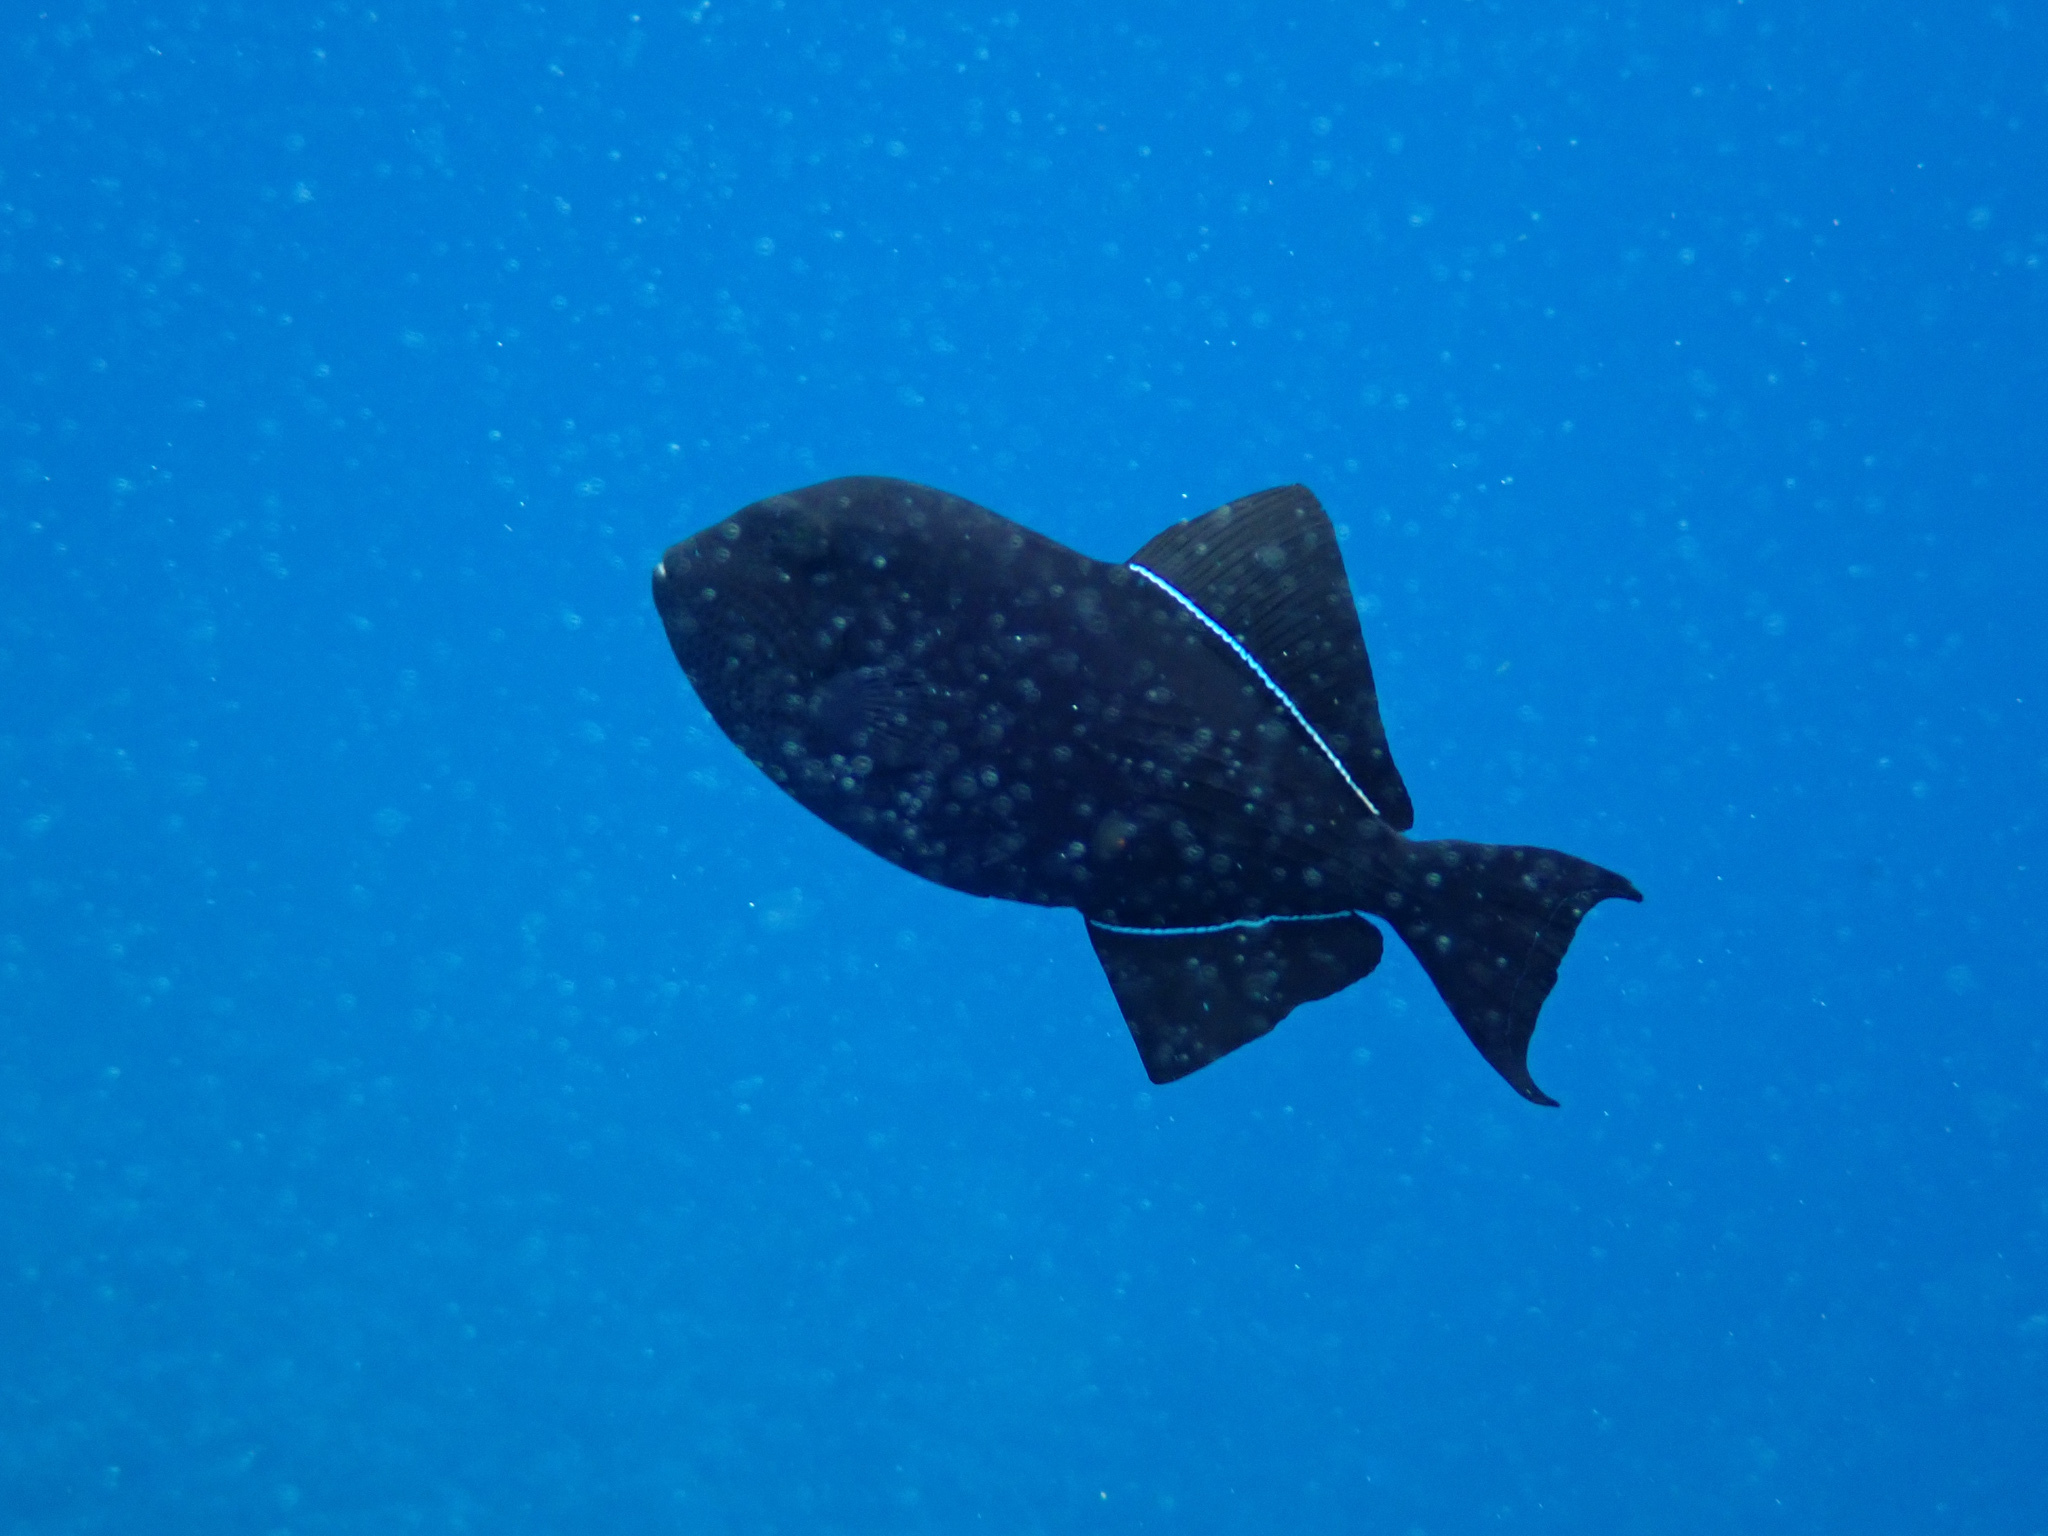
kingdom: Animalia
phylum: Chordata
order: Tetraodontiformes
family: Balistidae
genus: Melichthys
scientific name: Melichthys niger
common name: Black durgon
